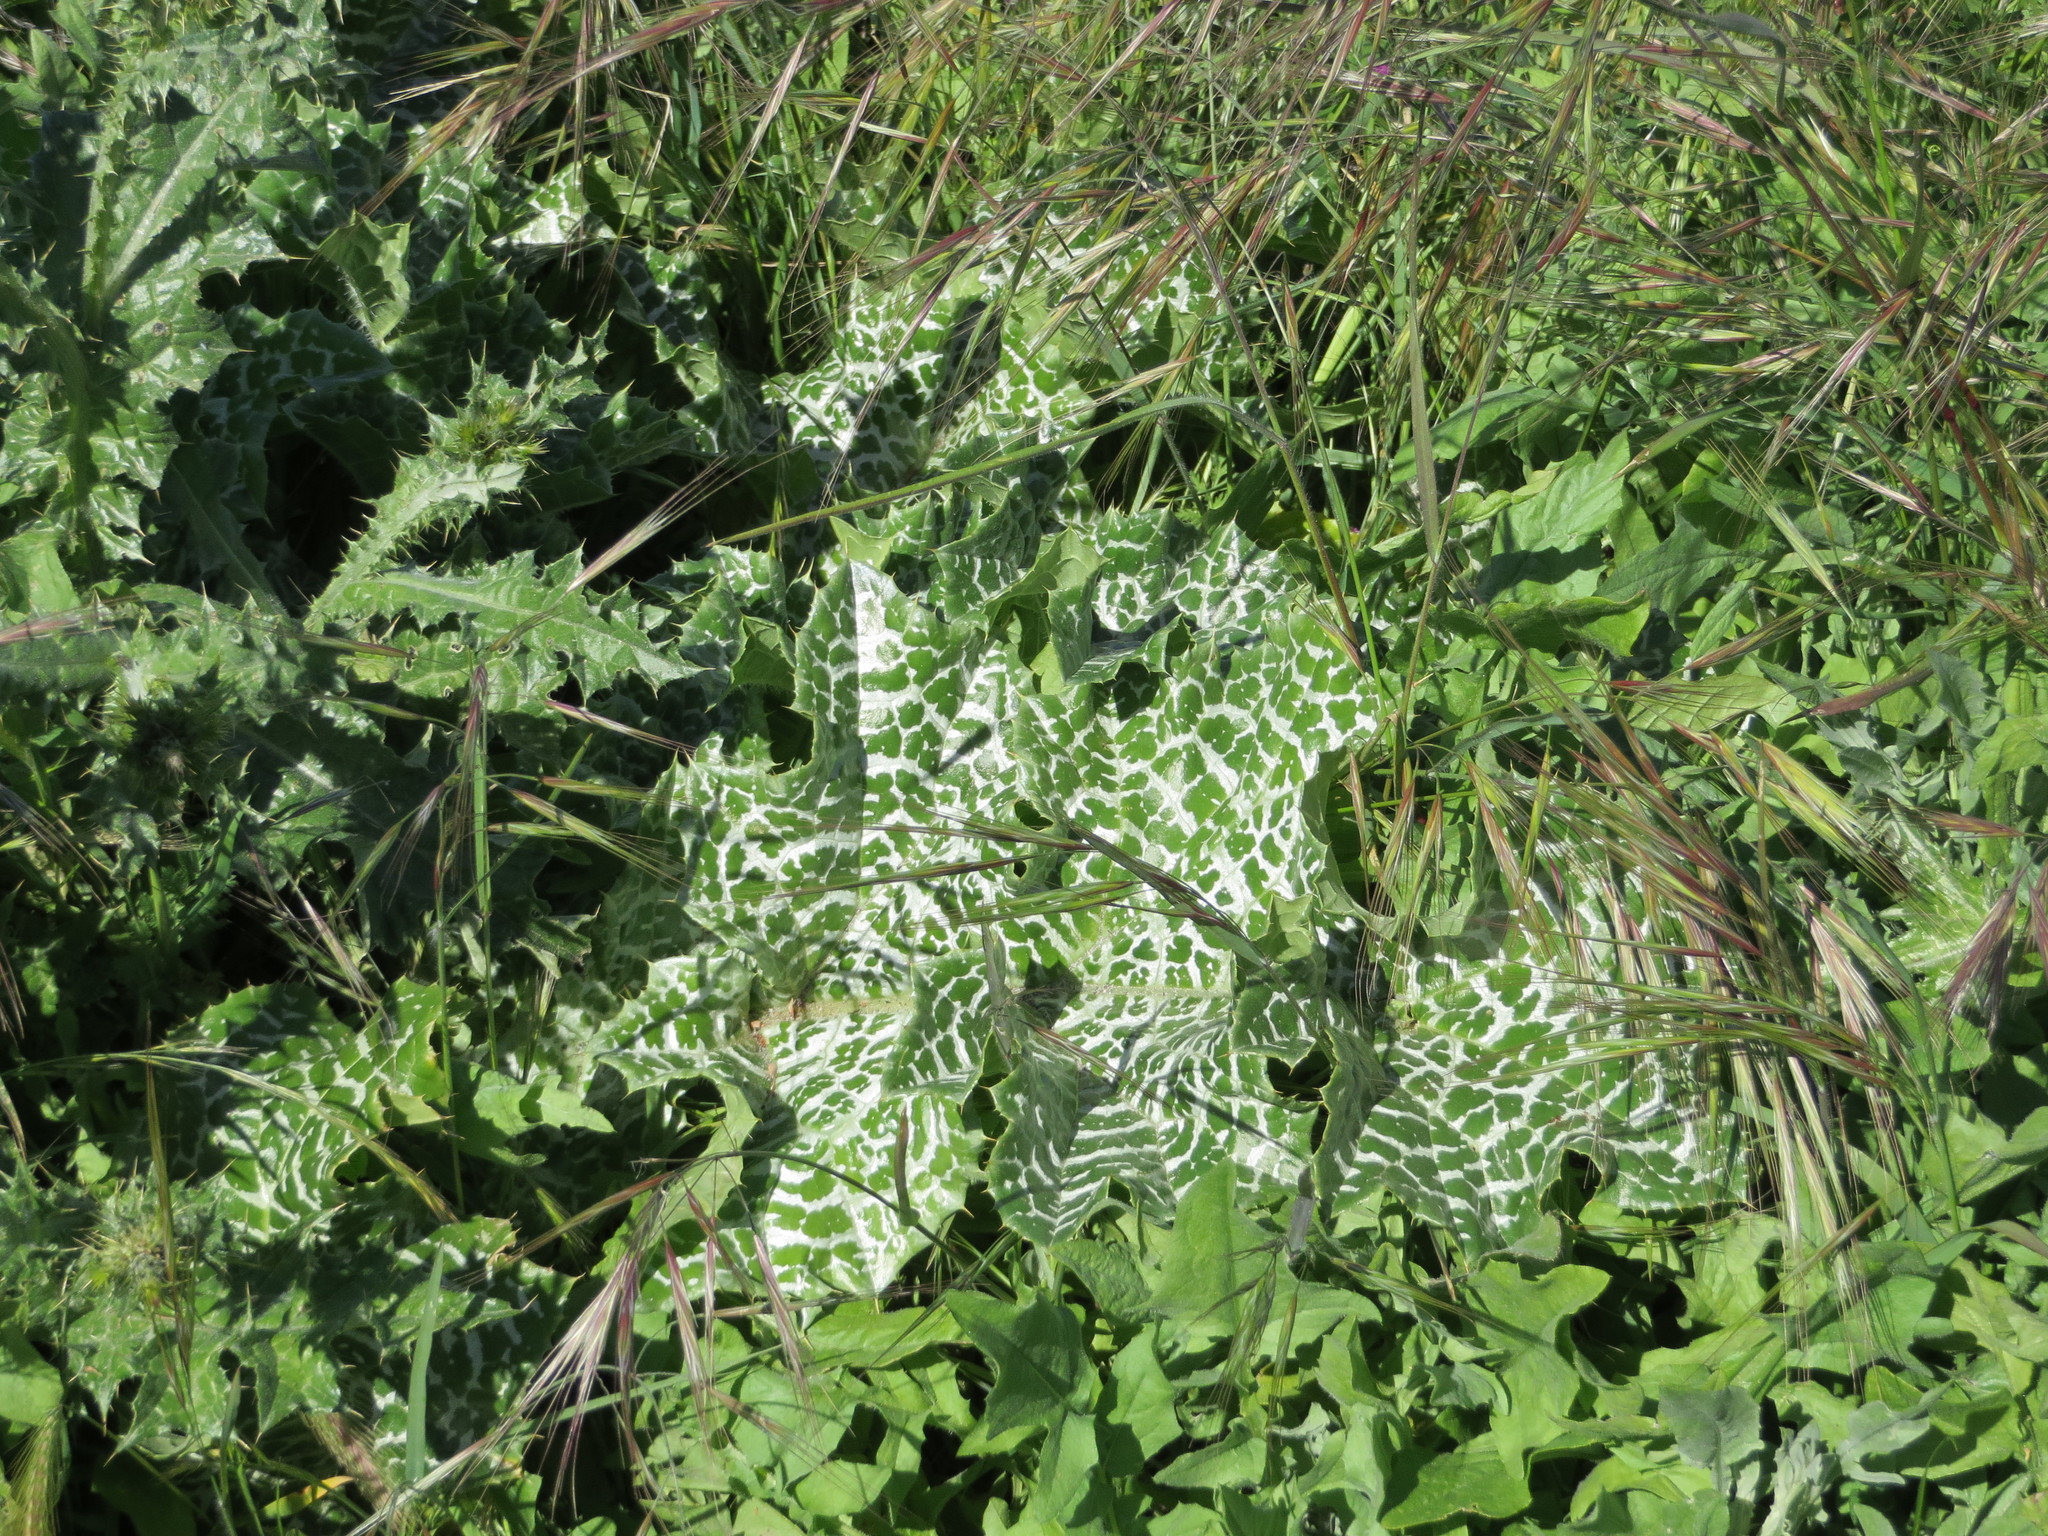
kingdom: Plantae
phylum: Tracheophyta
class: Magnoliopsida
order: Asterales
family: Asteraceae
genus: Silybum
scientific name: Silybum marianum
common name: Milk thistle
